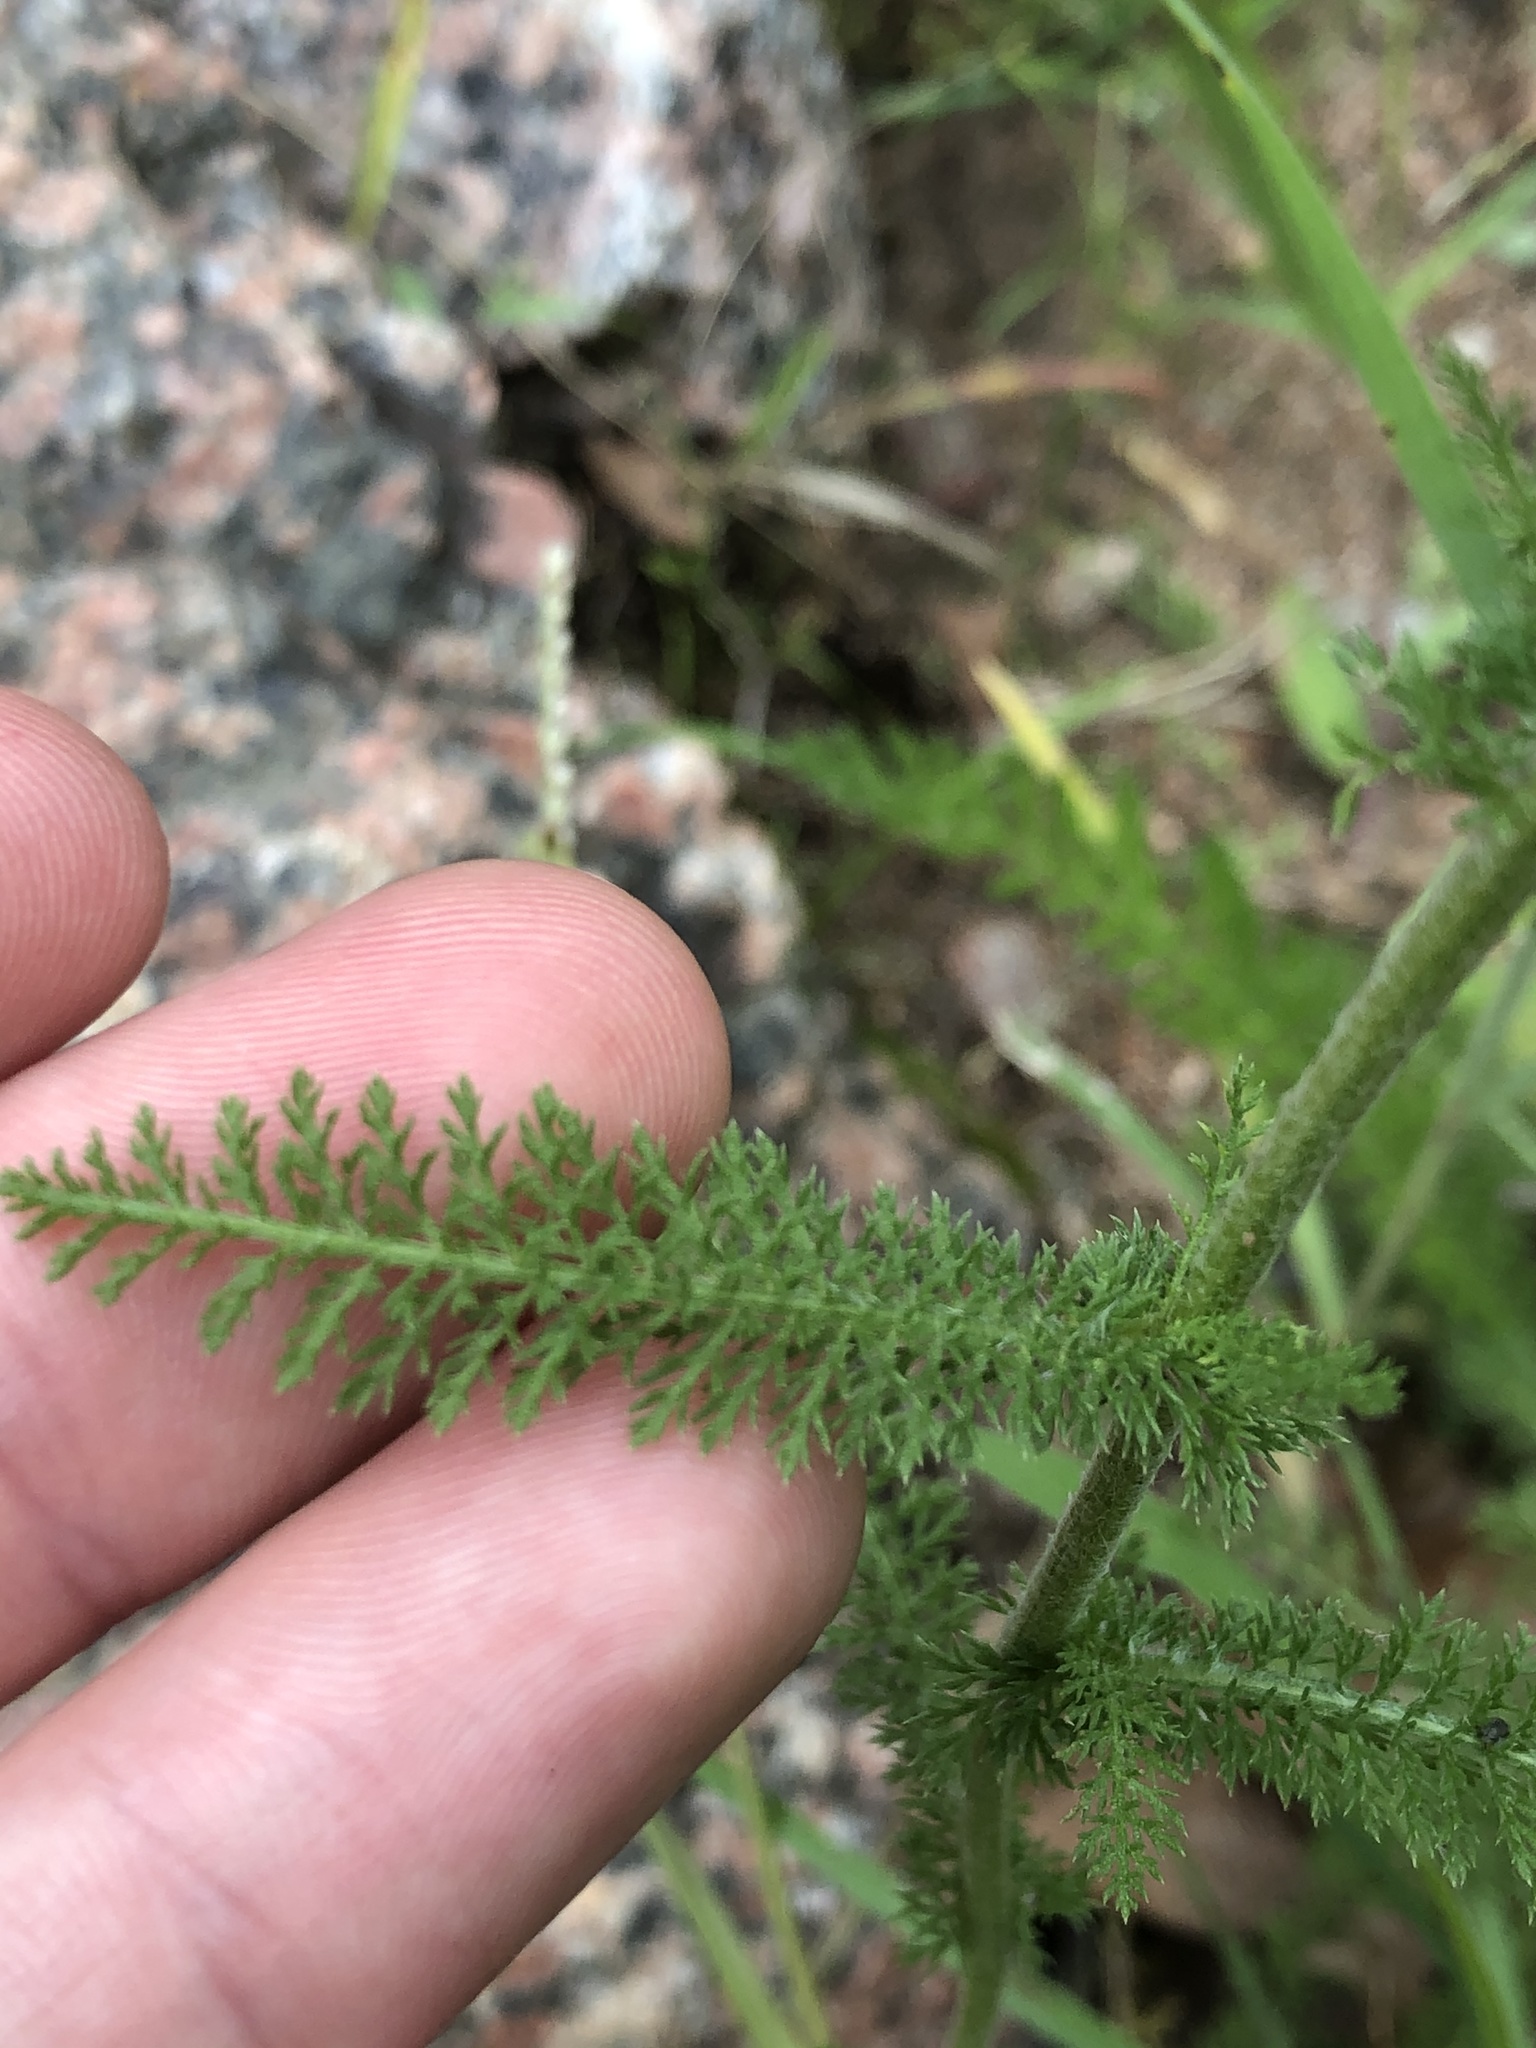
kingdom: Plantae
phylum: Tracheophyta
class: Magnoliopsida
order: Asterales
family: Asteraceae
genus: Achillea
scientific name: Achillea millefolium
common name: Yarrow
